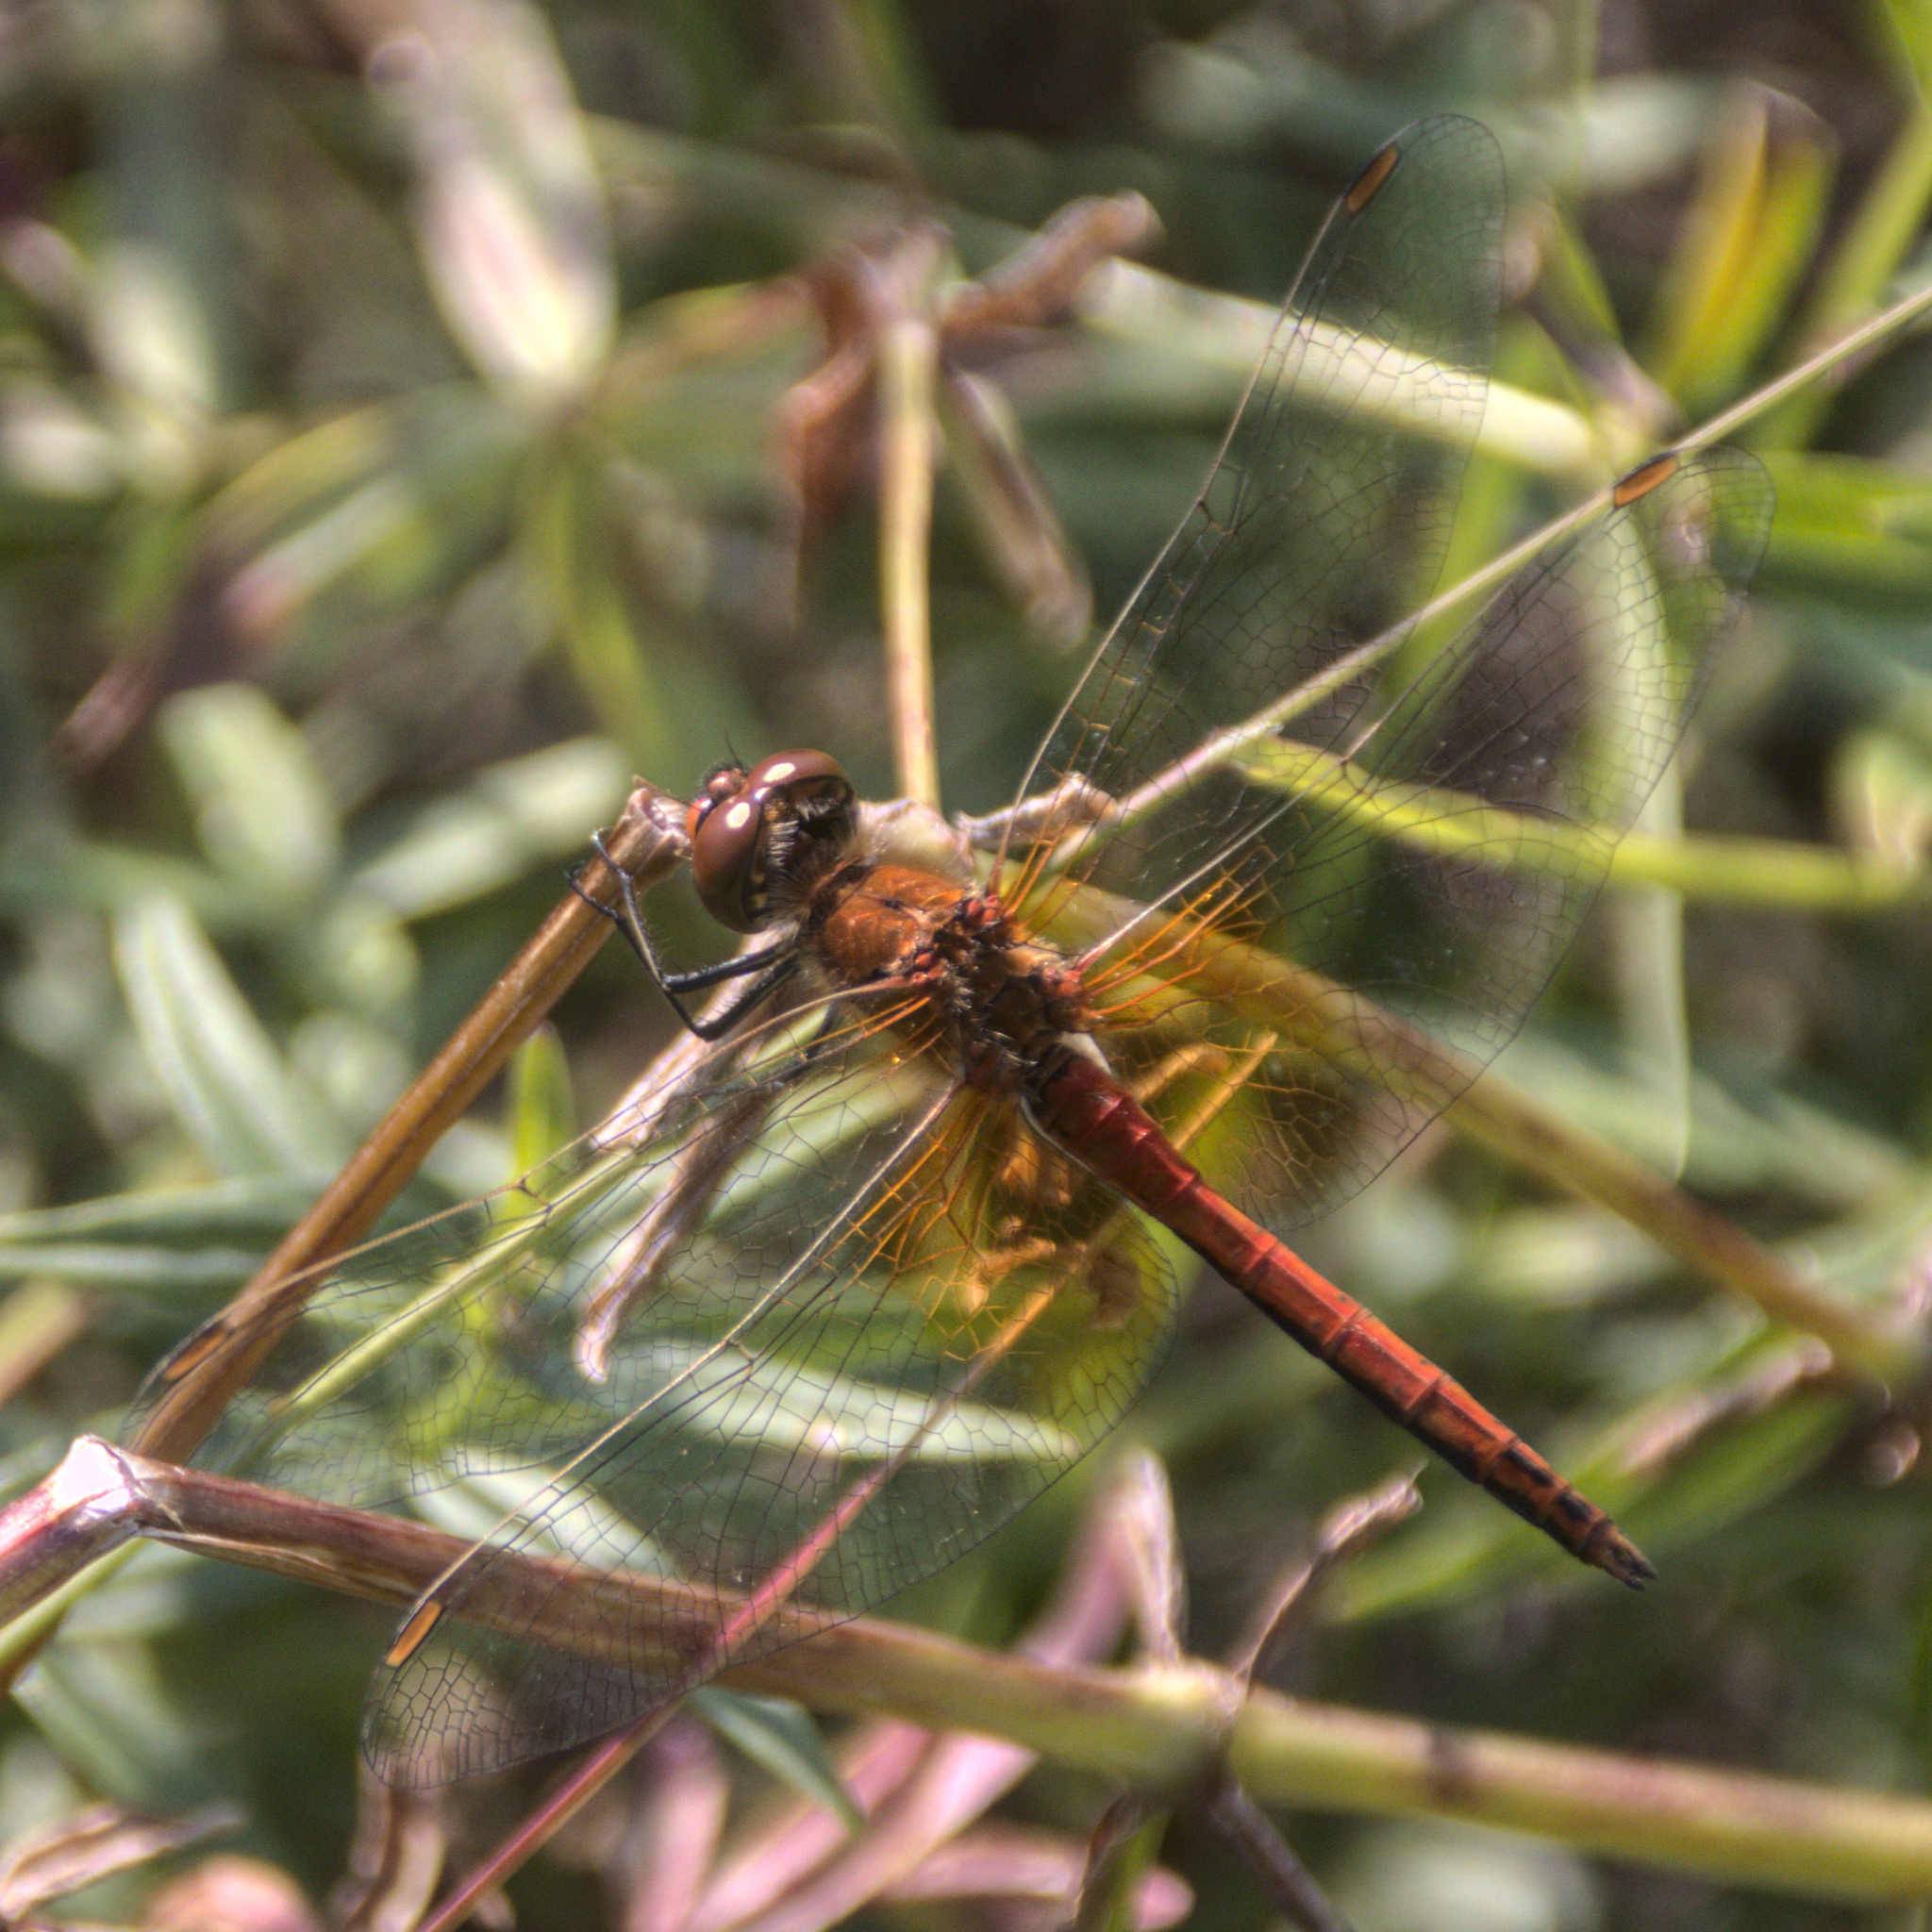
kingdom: Animalia
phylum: Arthropoda
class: Insecta
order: Odonata
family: Libellulidae
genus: Sympetrum
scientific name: Sympetrum flaveolum
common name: Yellow-winged darter
